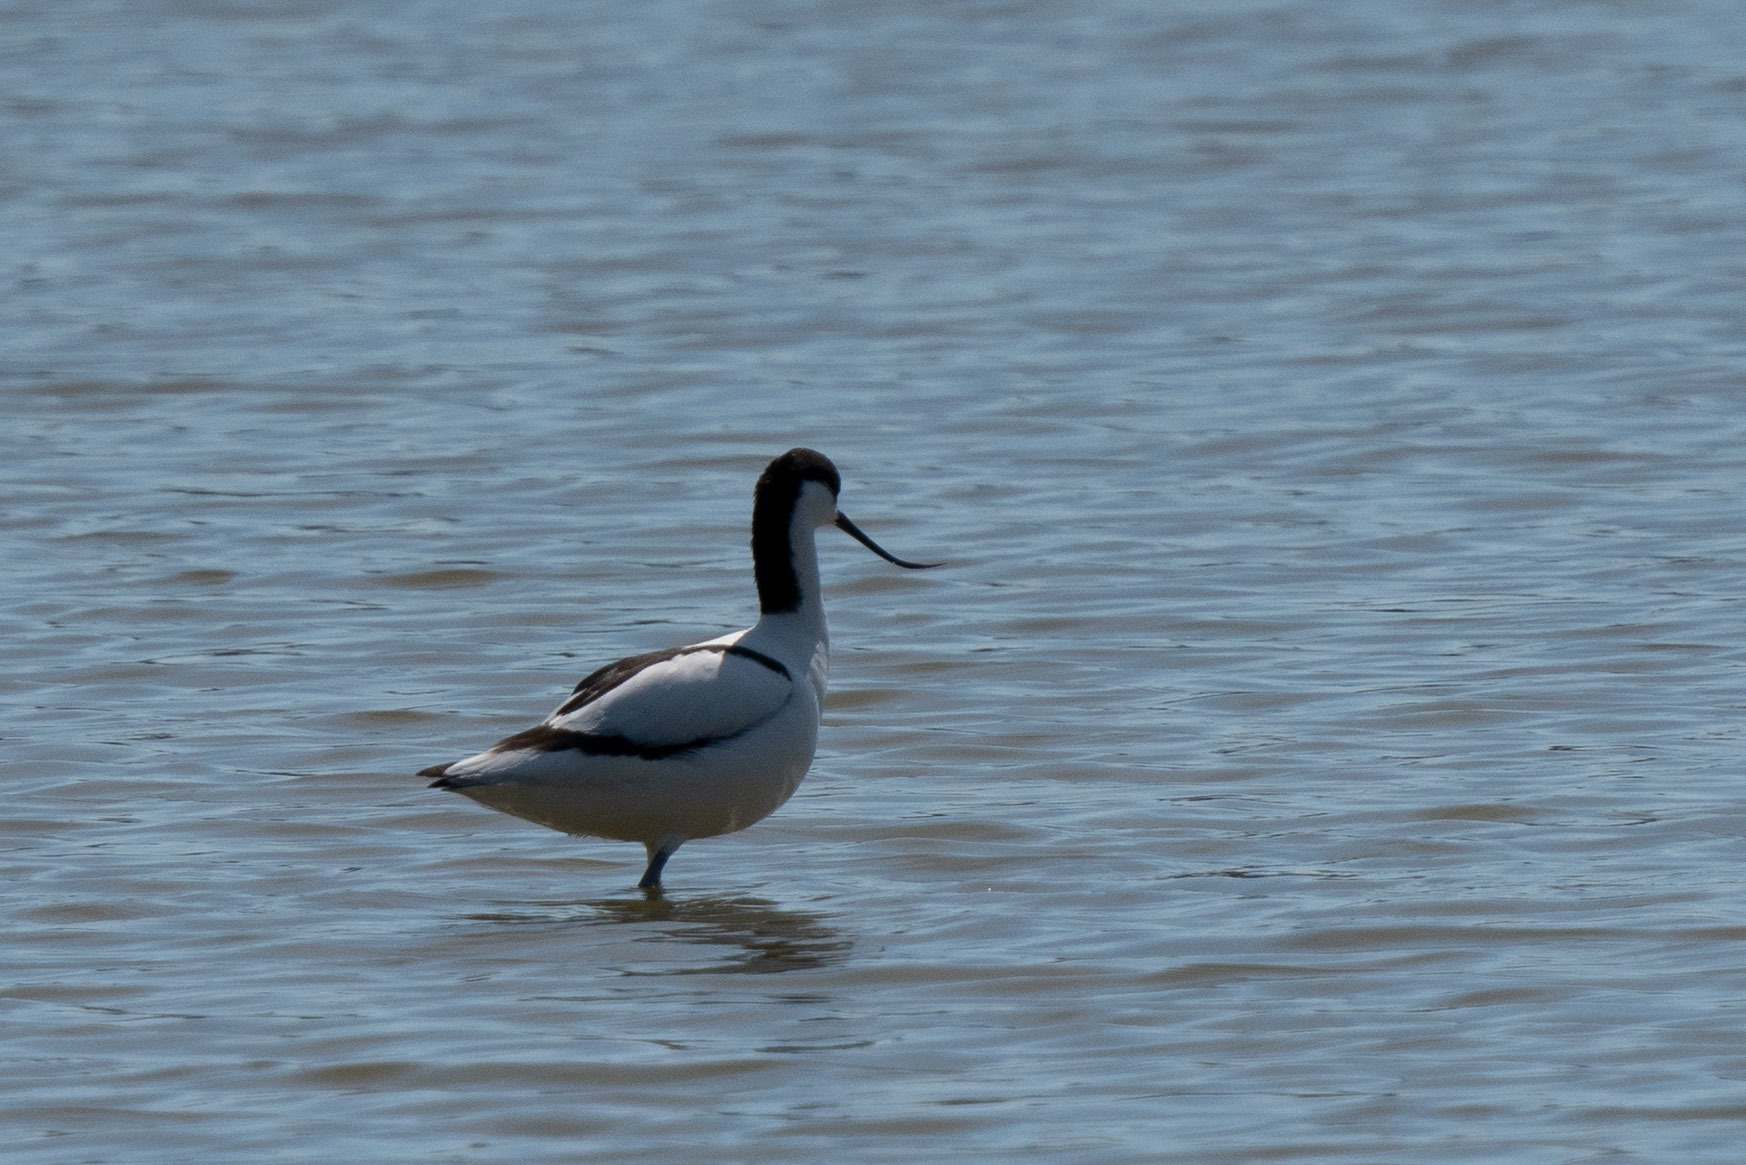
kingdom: Animalia
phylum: Chordata
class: Aves
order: Charadriiformes
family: Recurvirostridae
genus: Recurvirostra
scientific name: Recurvirostra avosetta
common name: Pied avocet
